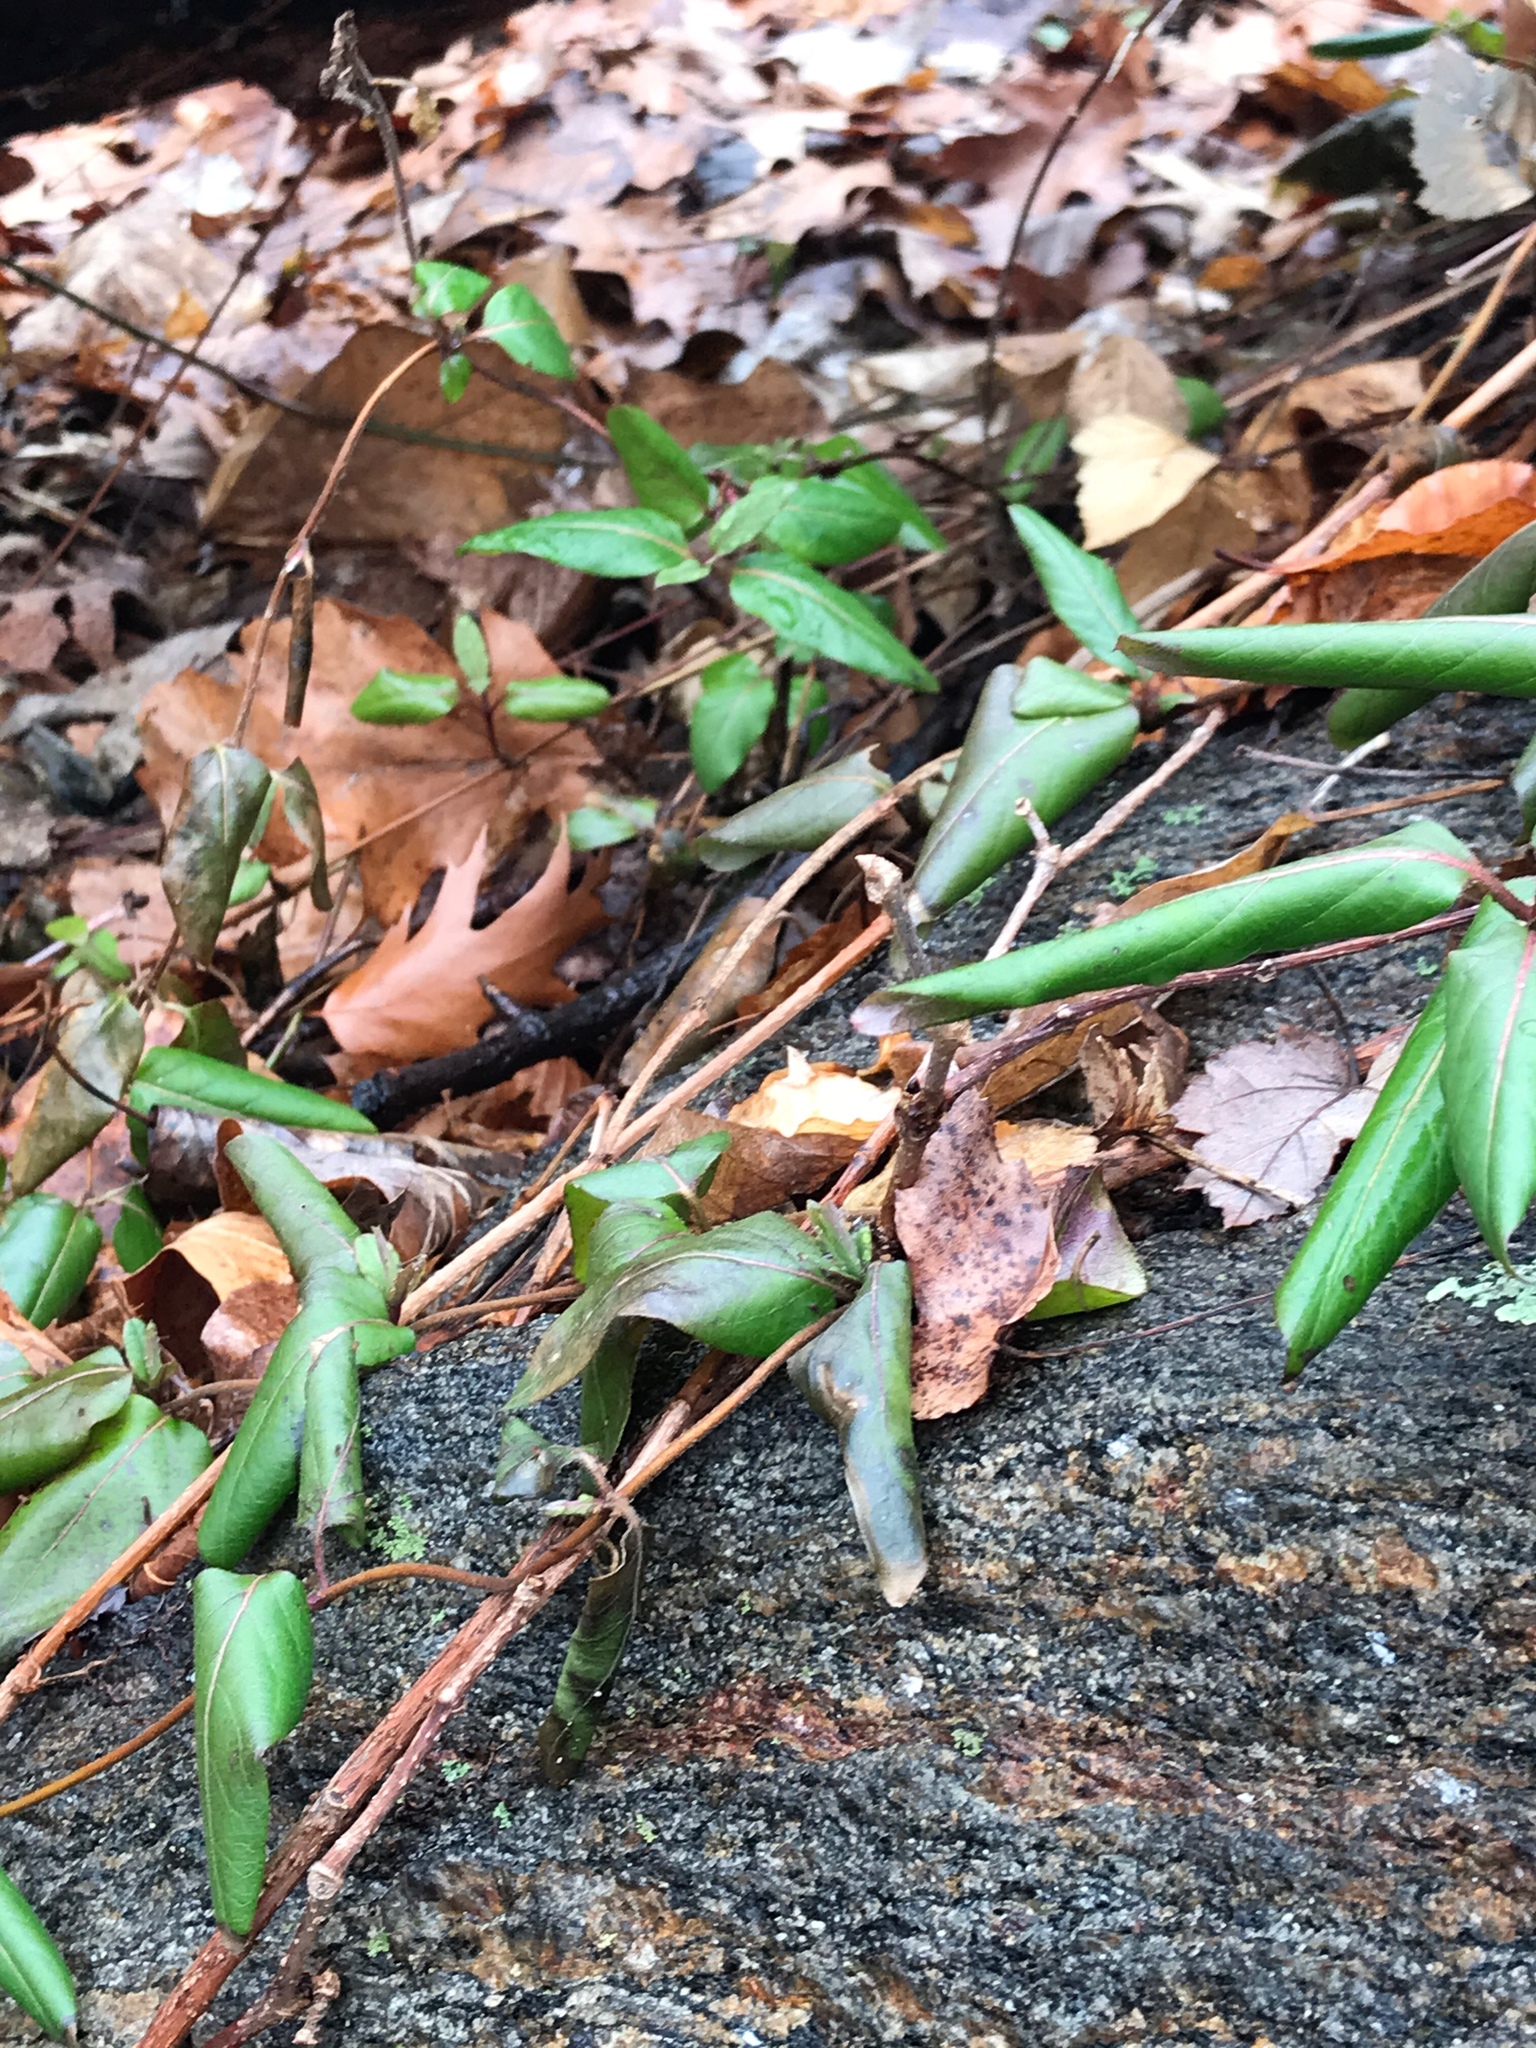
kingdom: Plantae
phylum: Tracheophyta
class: Magnoliopsida
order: Dipsacales
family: Caprifoliaceae
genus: Lonicera
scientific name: Lonicera japonica
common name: Japanese honeysuckle
